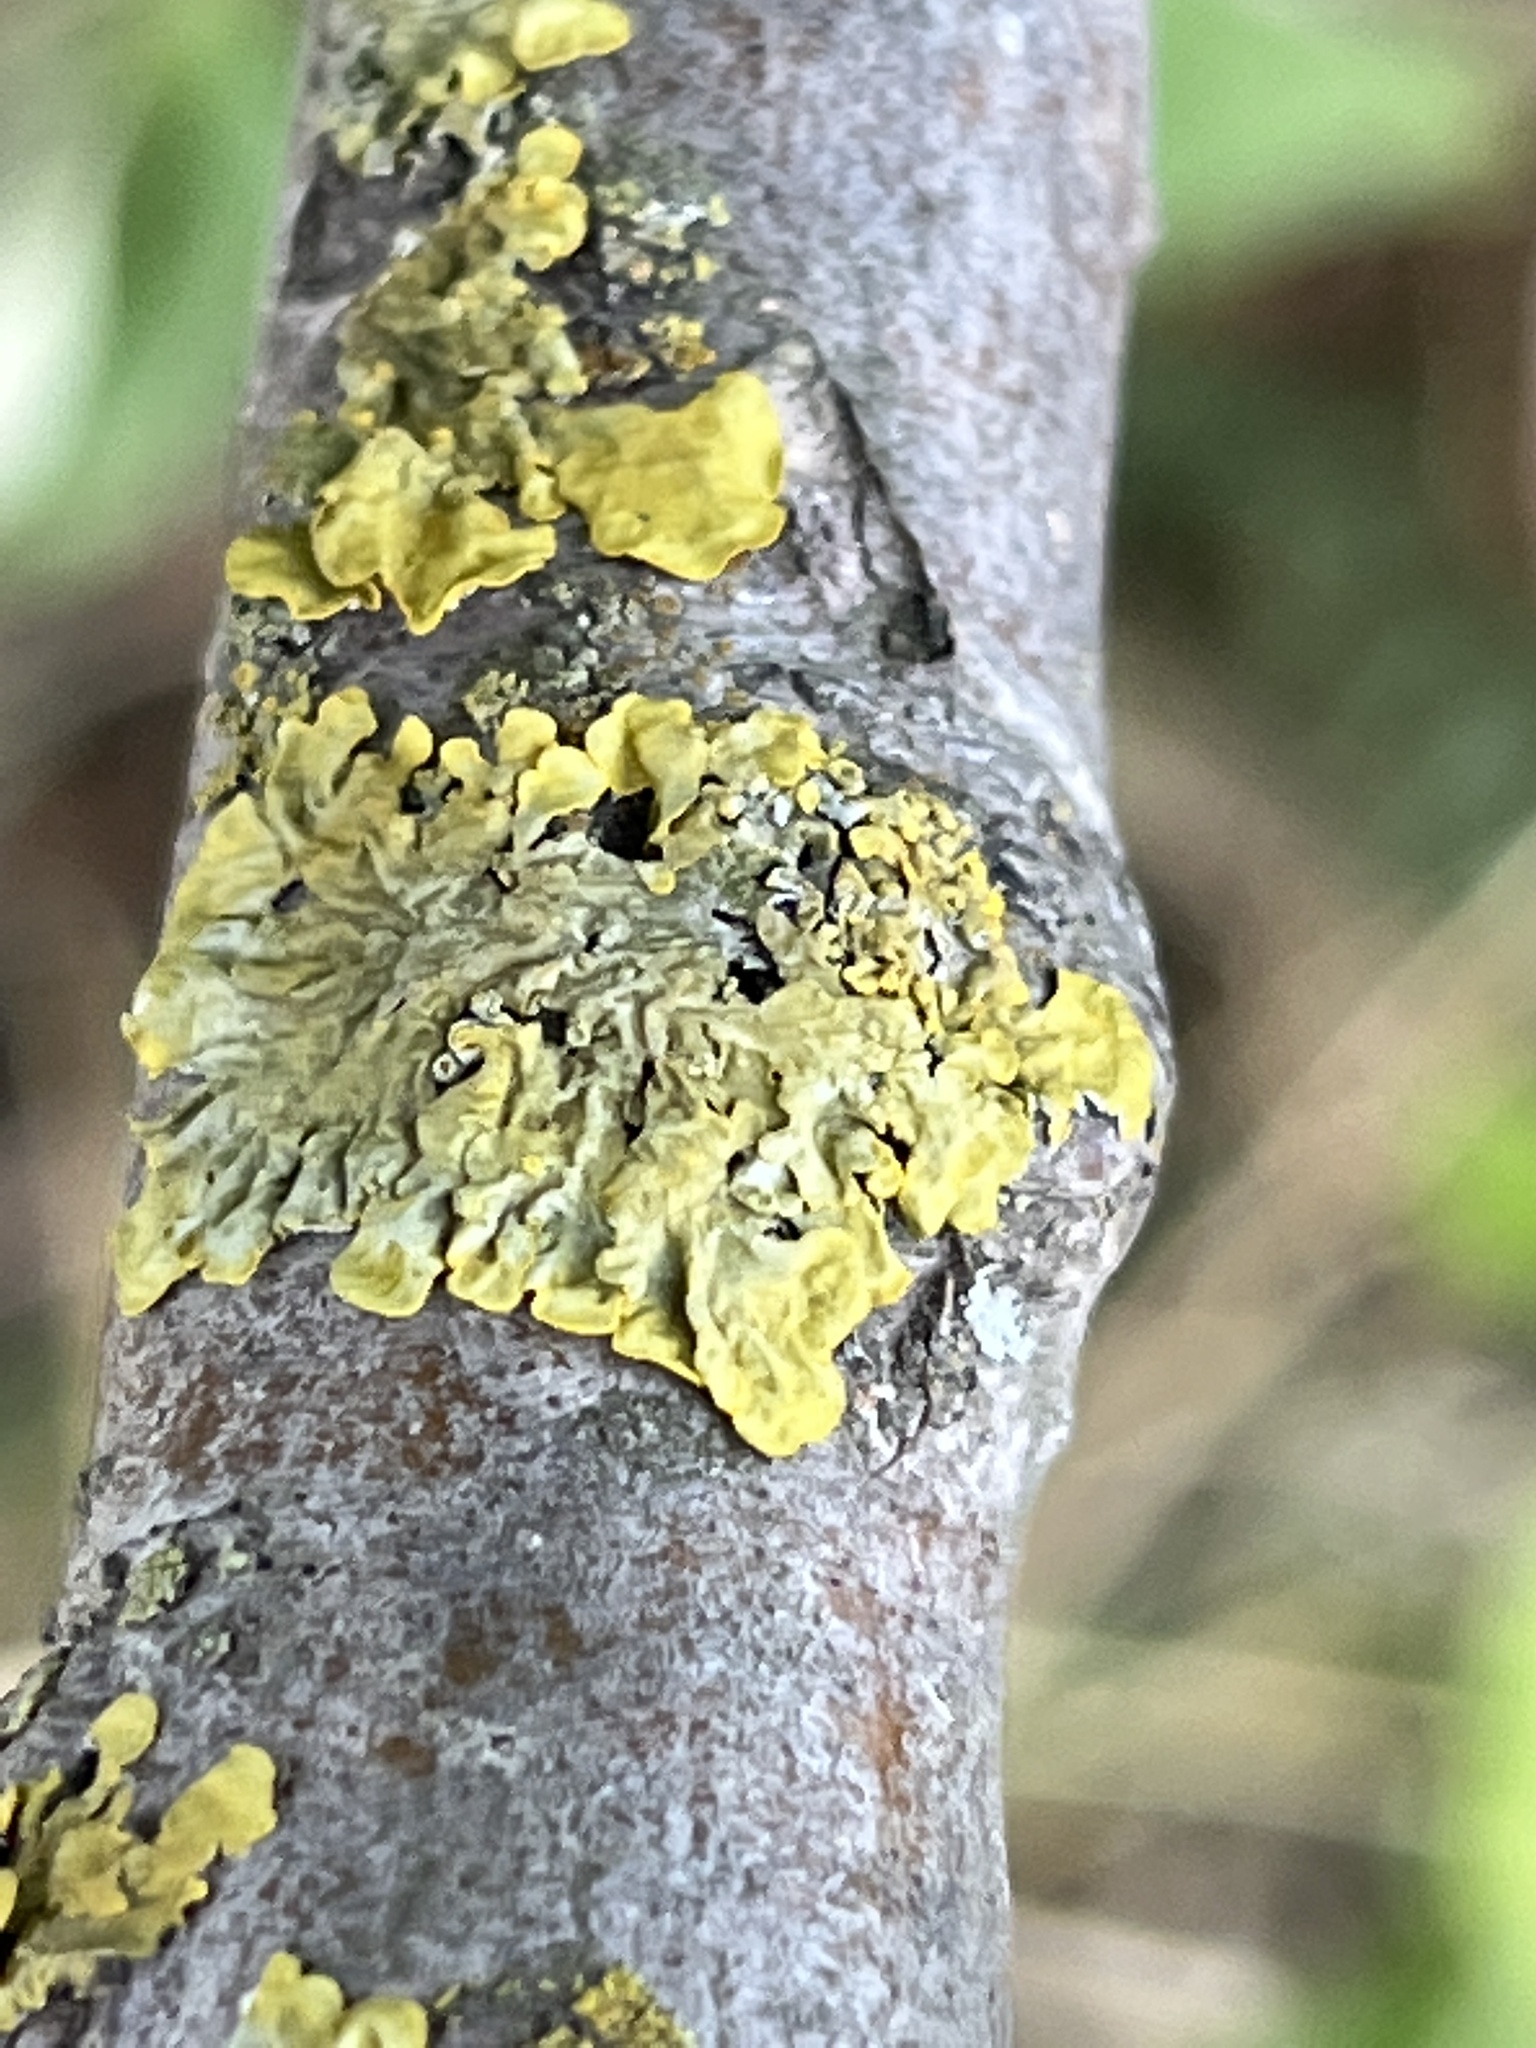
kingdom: Fungi
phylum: Ascomycota
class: Lecanoromycetes
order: Teloschistales
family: Teloschistaceae
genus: Xanthoria
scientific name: Xanthoria parietina
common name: Common orange lichen
